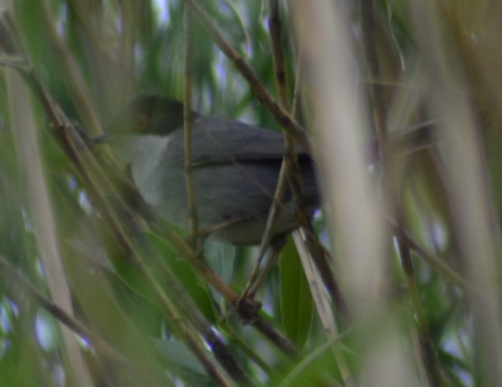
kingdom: Animalia
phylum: Chordata
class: Aves
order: Passeriformes
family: Sylviidae
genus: Curruca
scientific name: Curruca melanocephala
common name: Sardinian warbler
